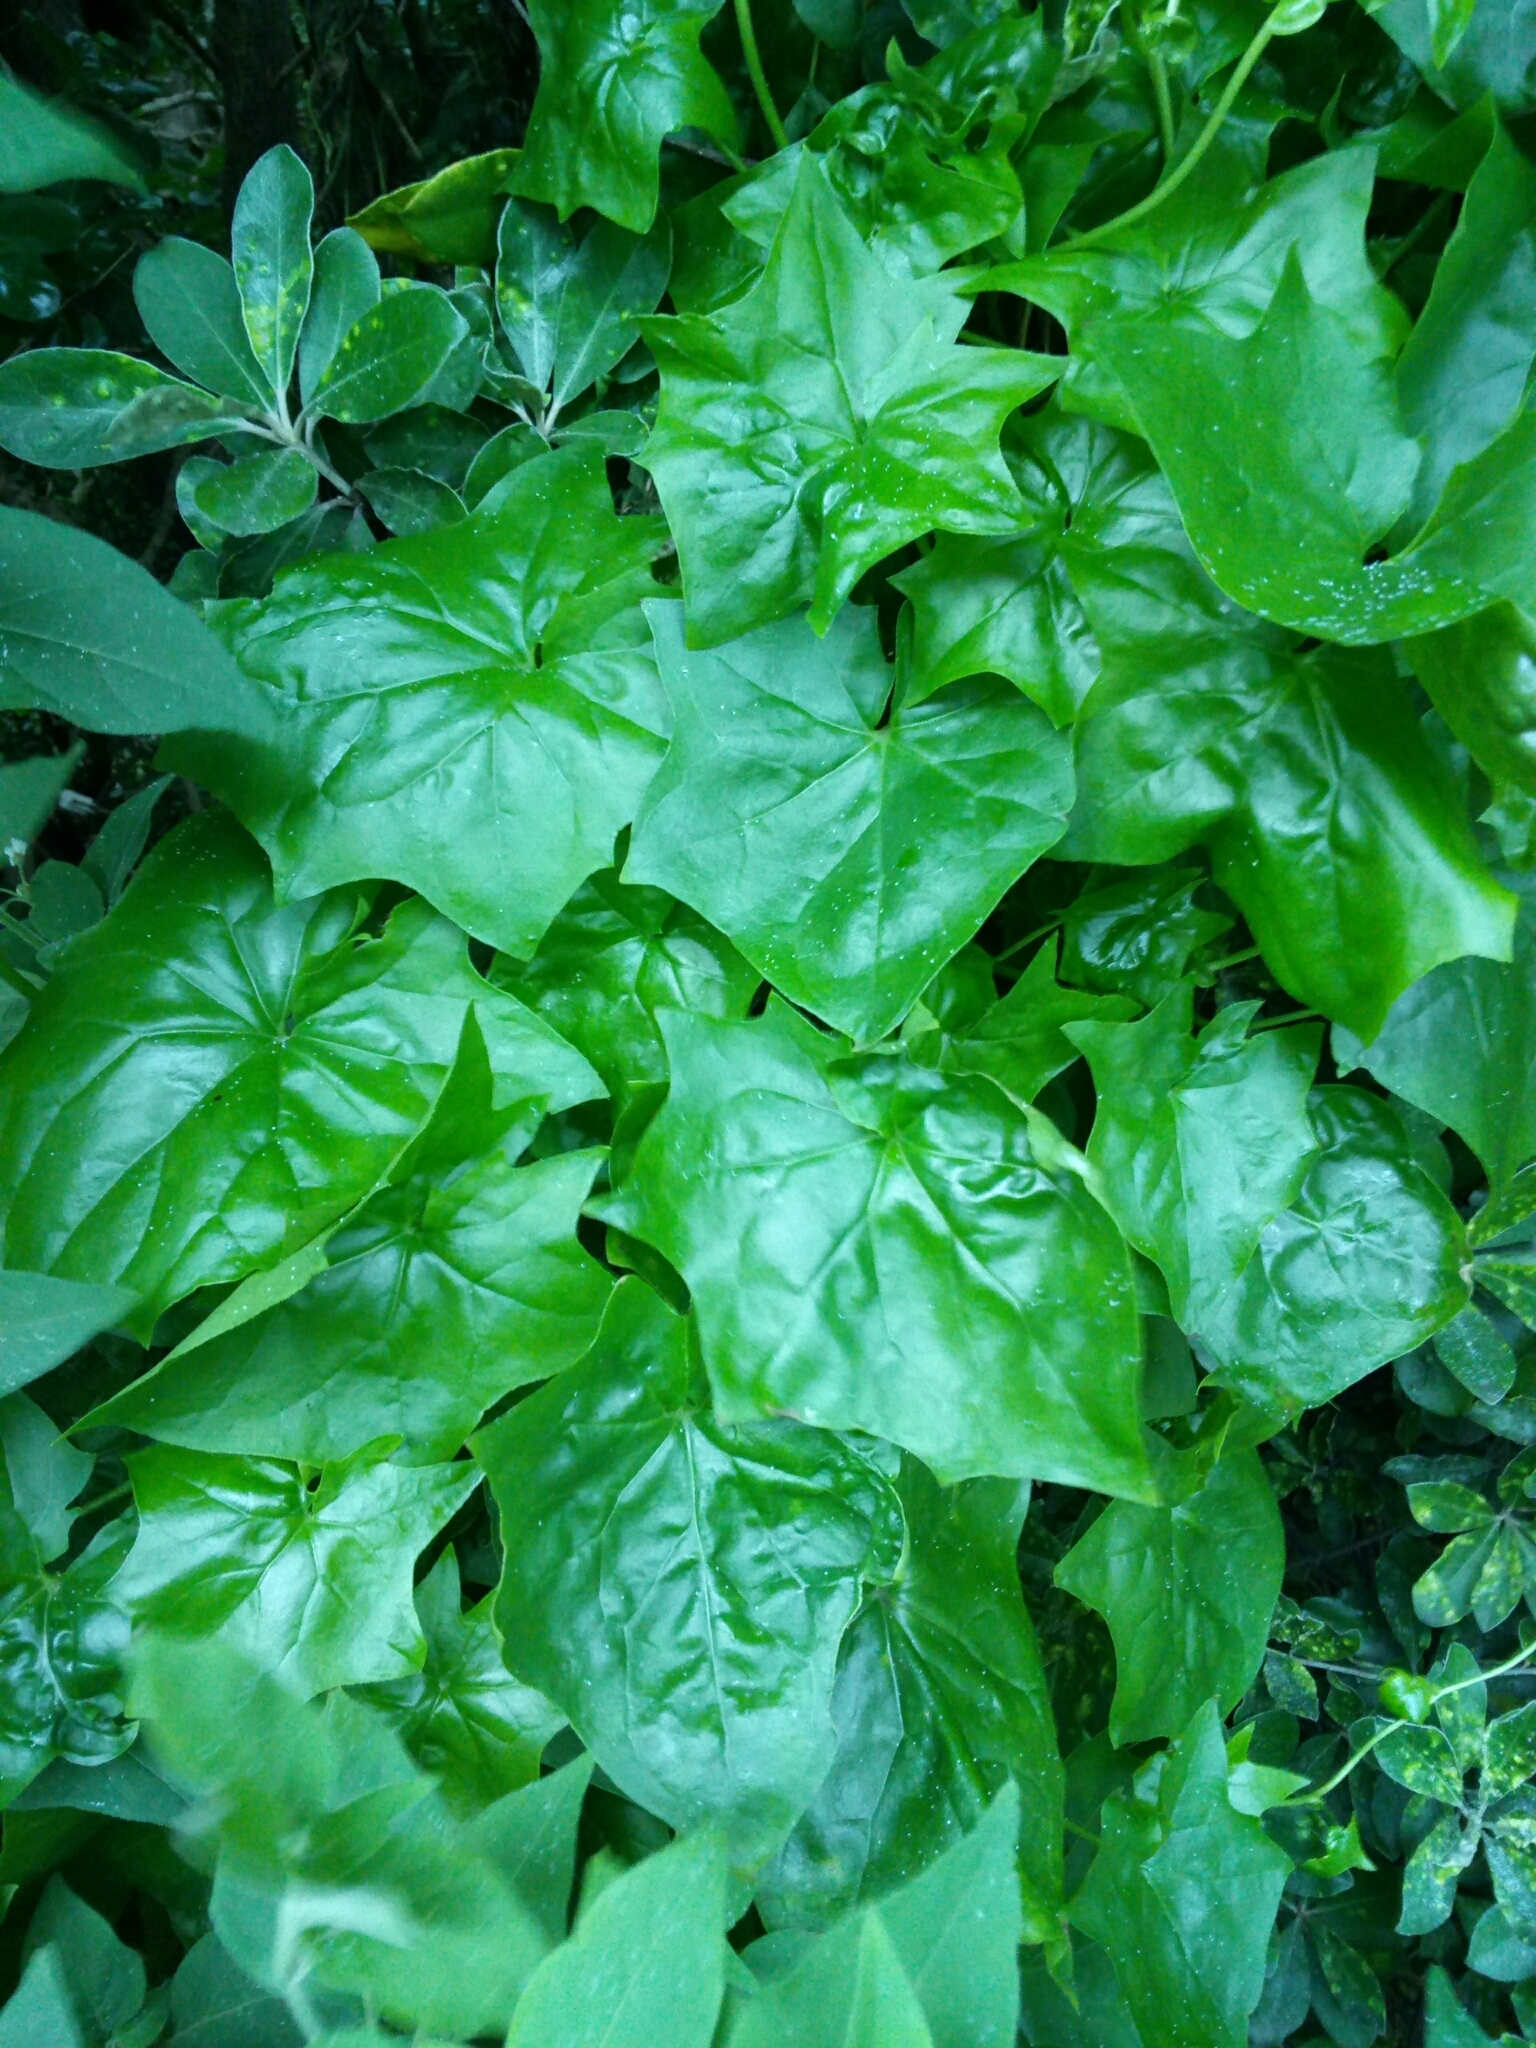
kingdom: Plantae
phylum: Tracheophyta
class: Magnoliopsida
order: Asterales
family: Asteraceae
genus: Delairea
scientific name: Delairea odorata
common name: Cape-ivy
